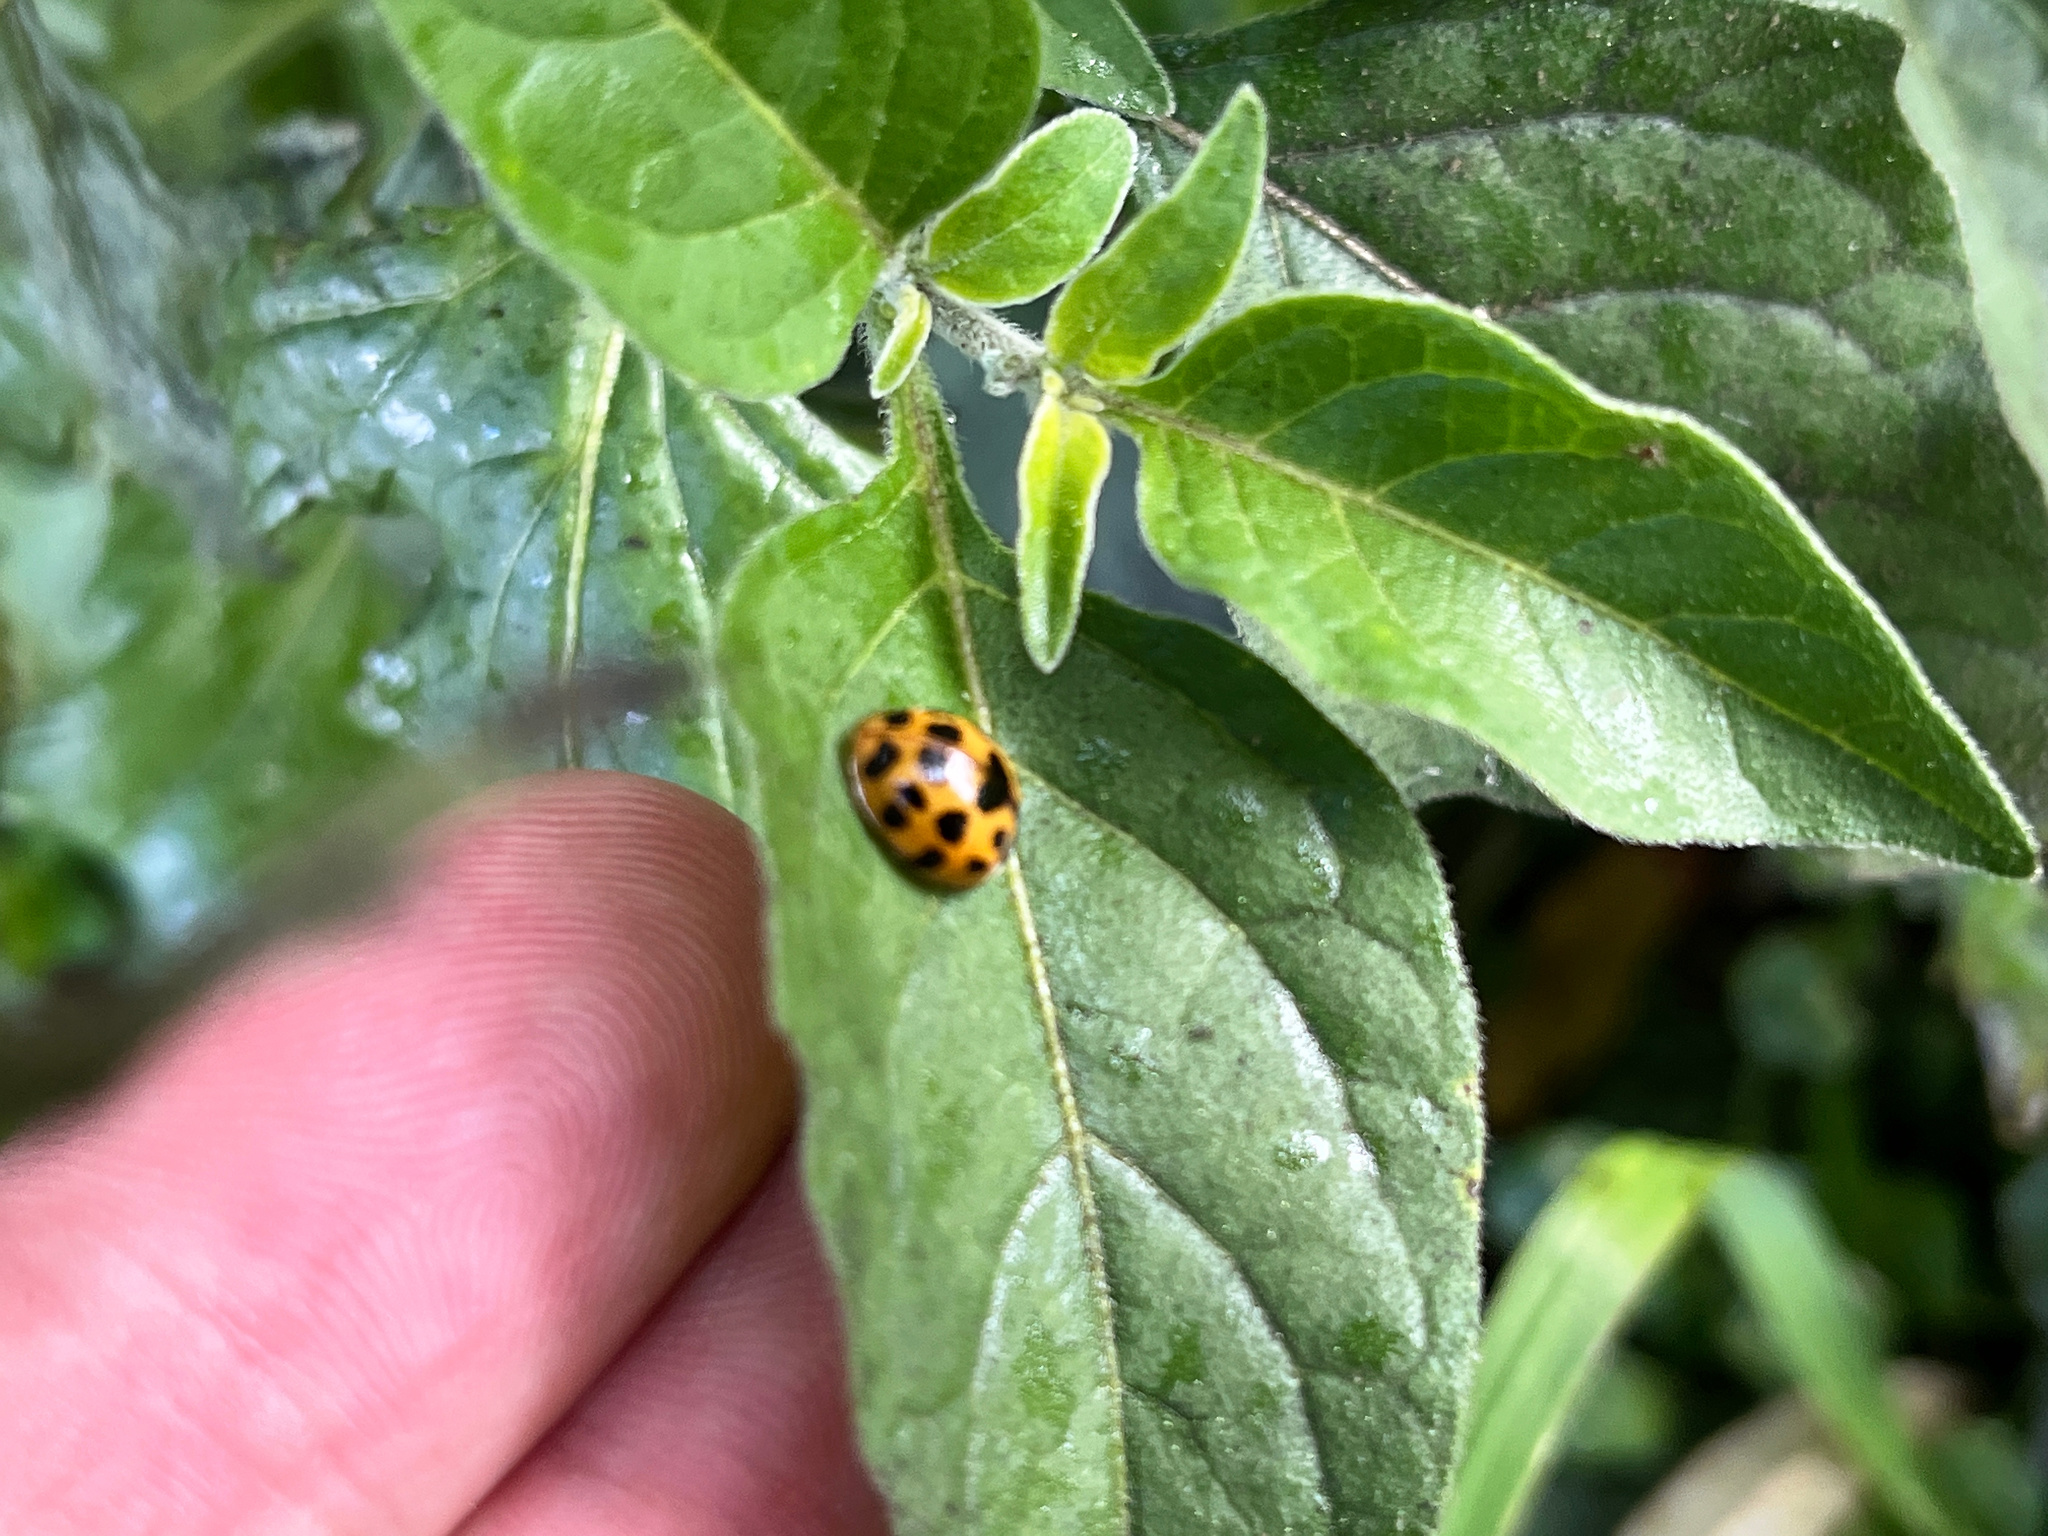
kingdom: Animalia
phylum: Arthropoda
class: Insecta
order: Coleoptera
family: Coccinellidae
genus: Harmonia
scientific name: Harmonia axyridis
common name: Harlequin ladybird
